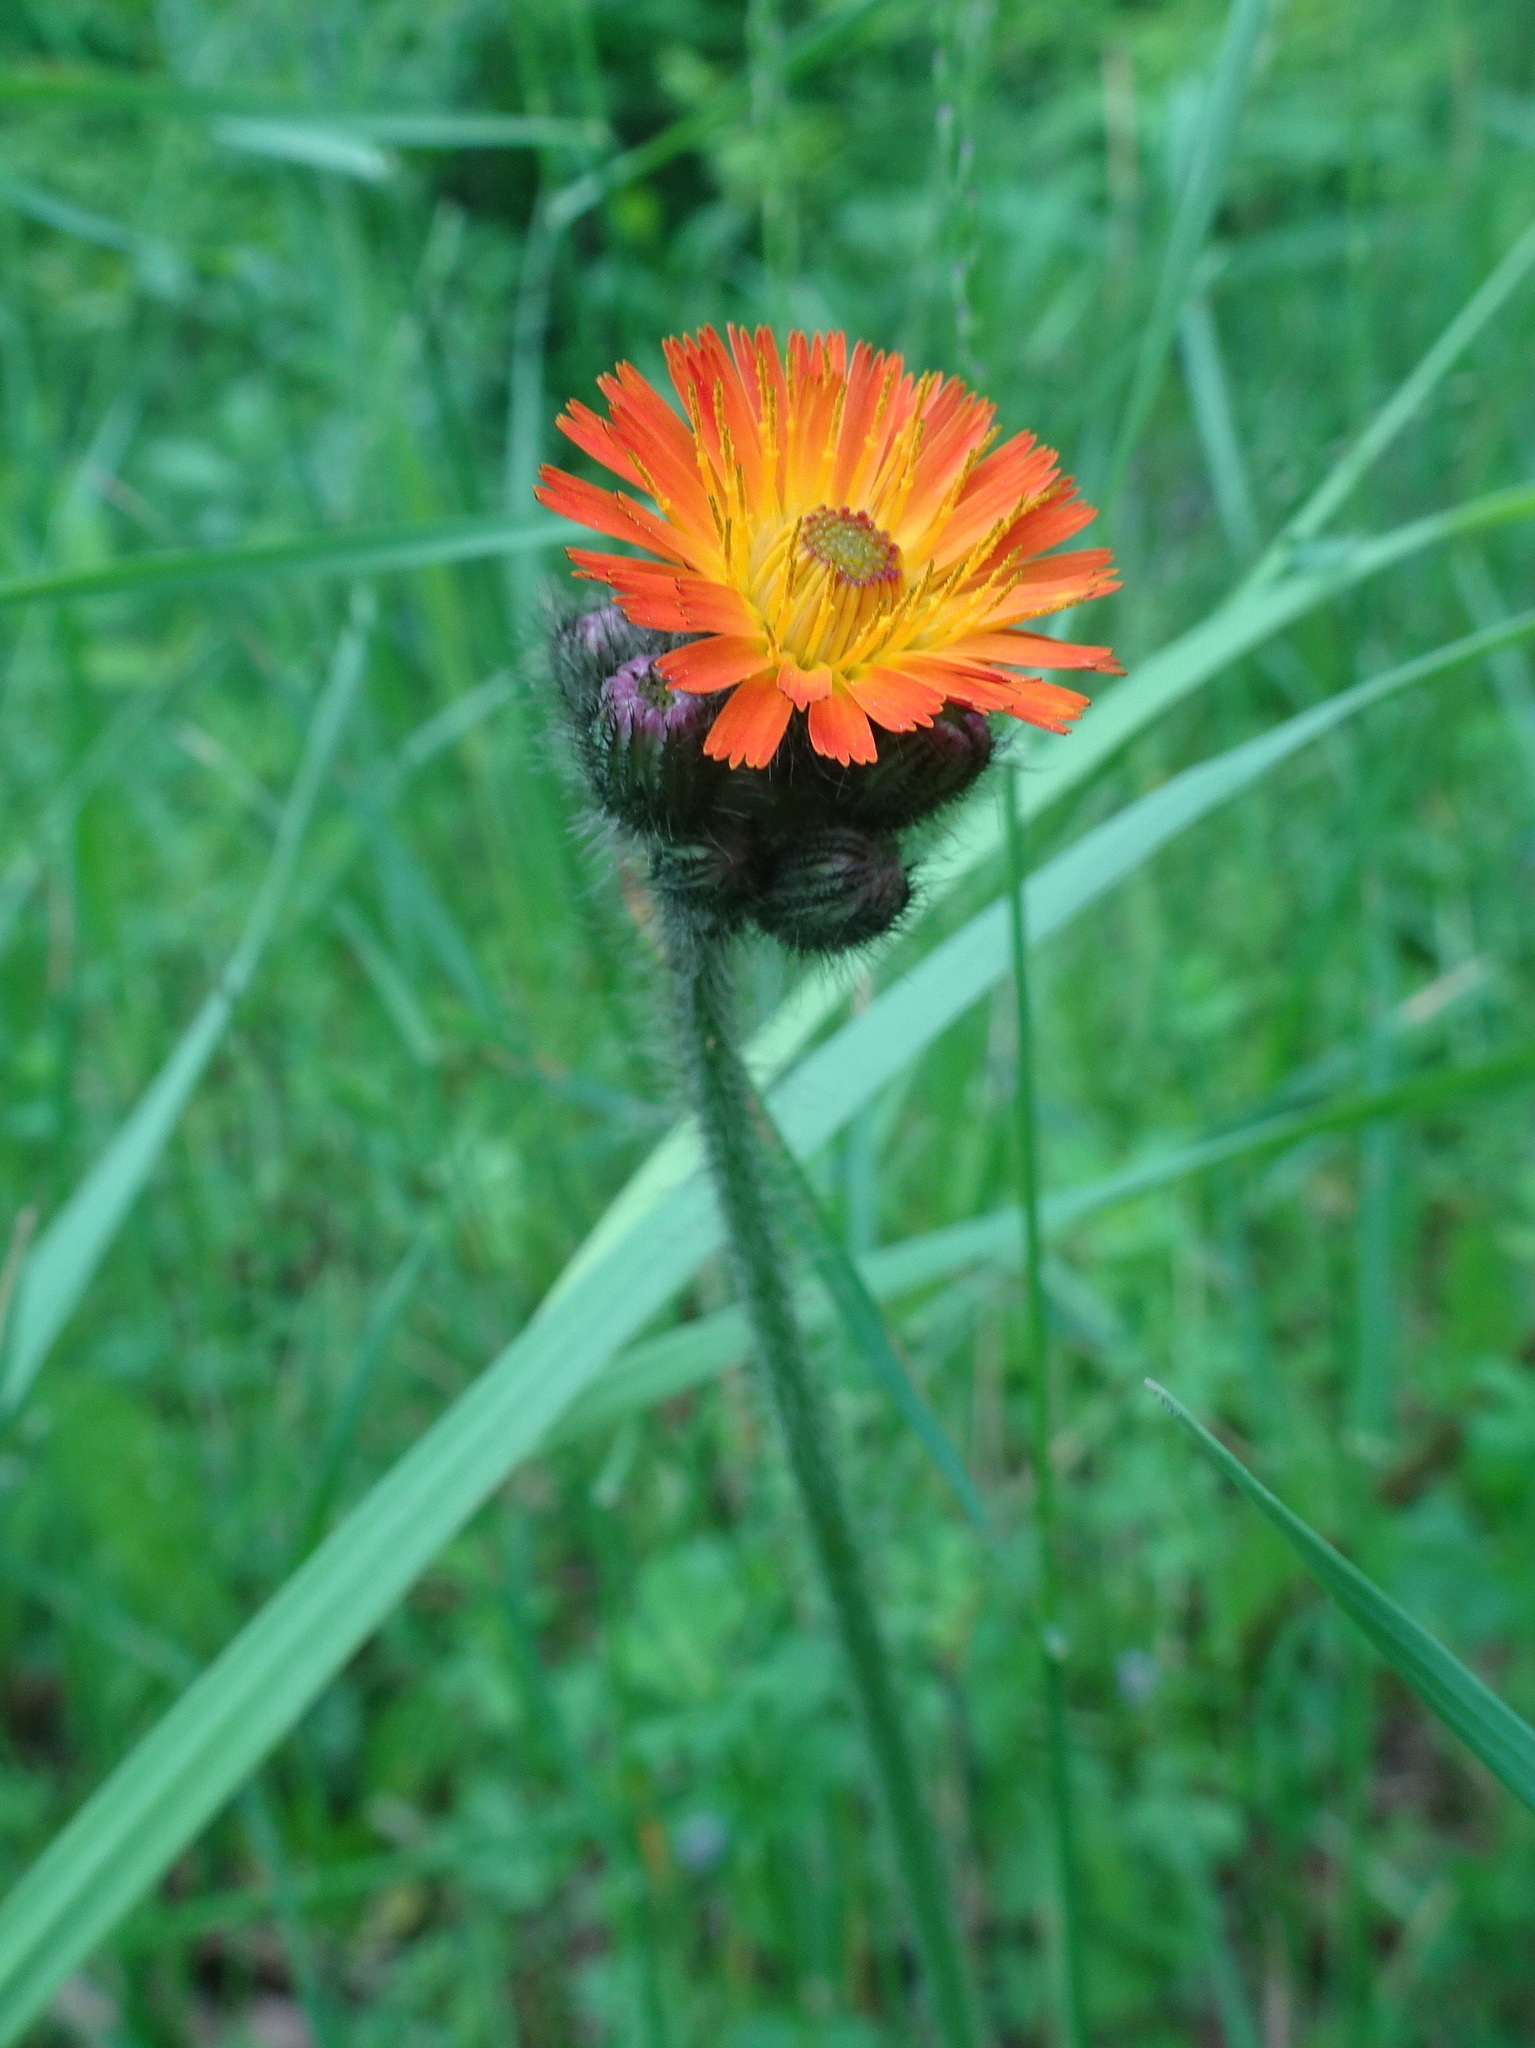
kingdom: Plantae
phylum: Tracheophyta
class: Magnoliopsida
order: Asterales
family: Asteraceae
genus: Pilosella
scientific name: Pilosella aurantiaca
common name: Fox-and-cubs
